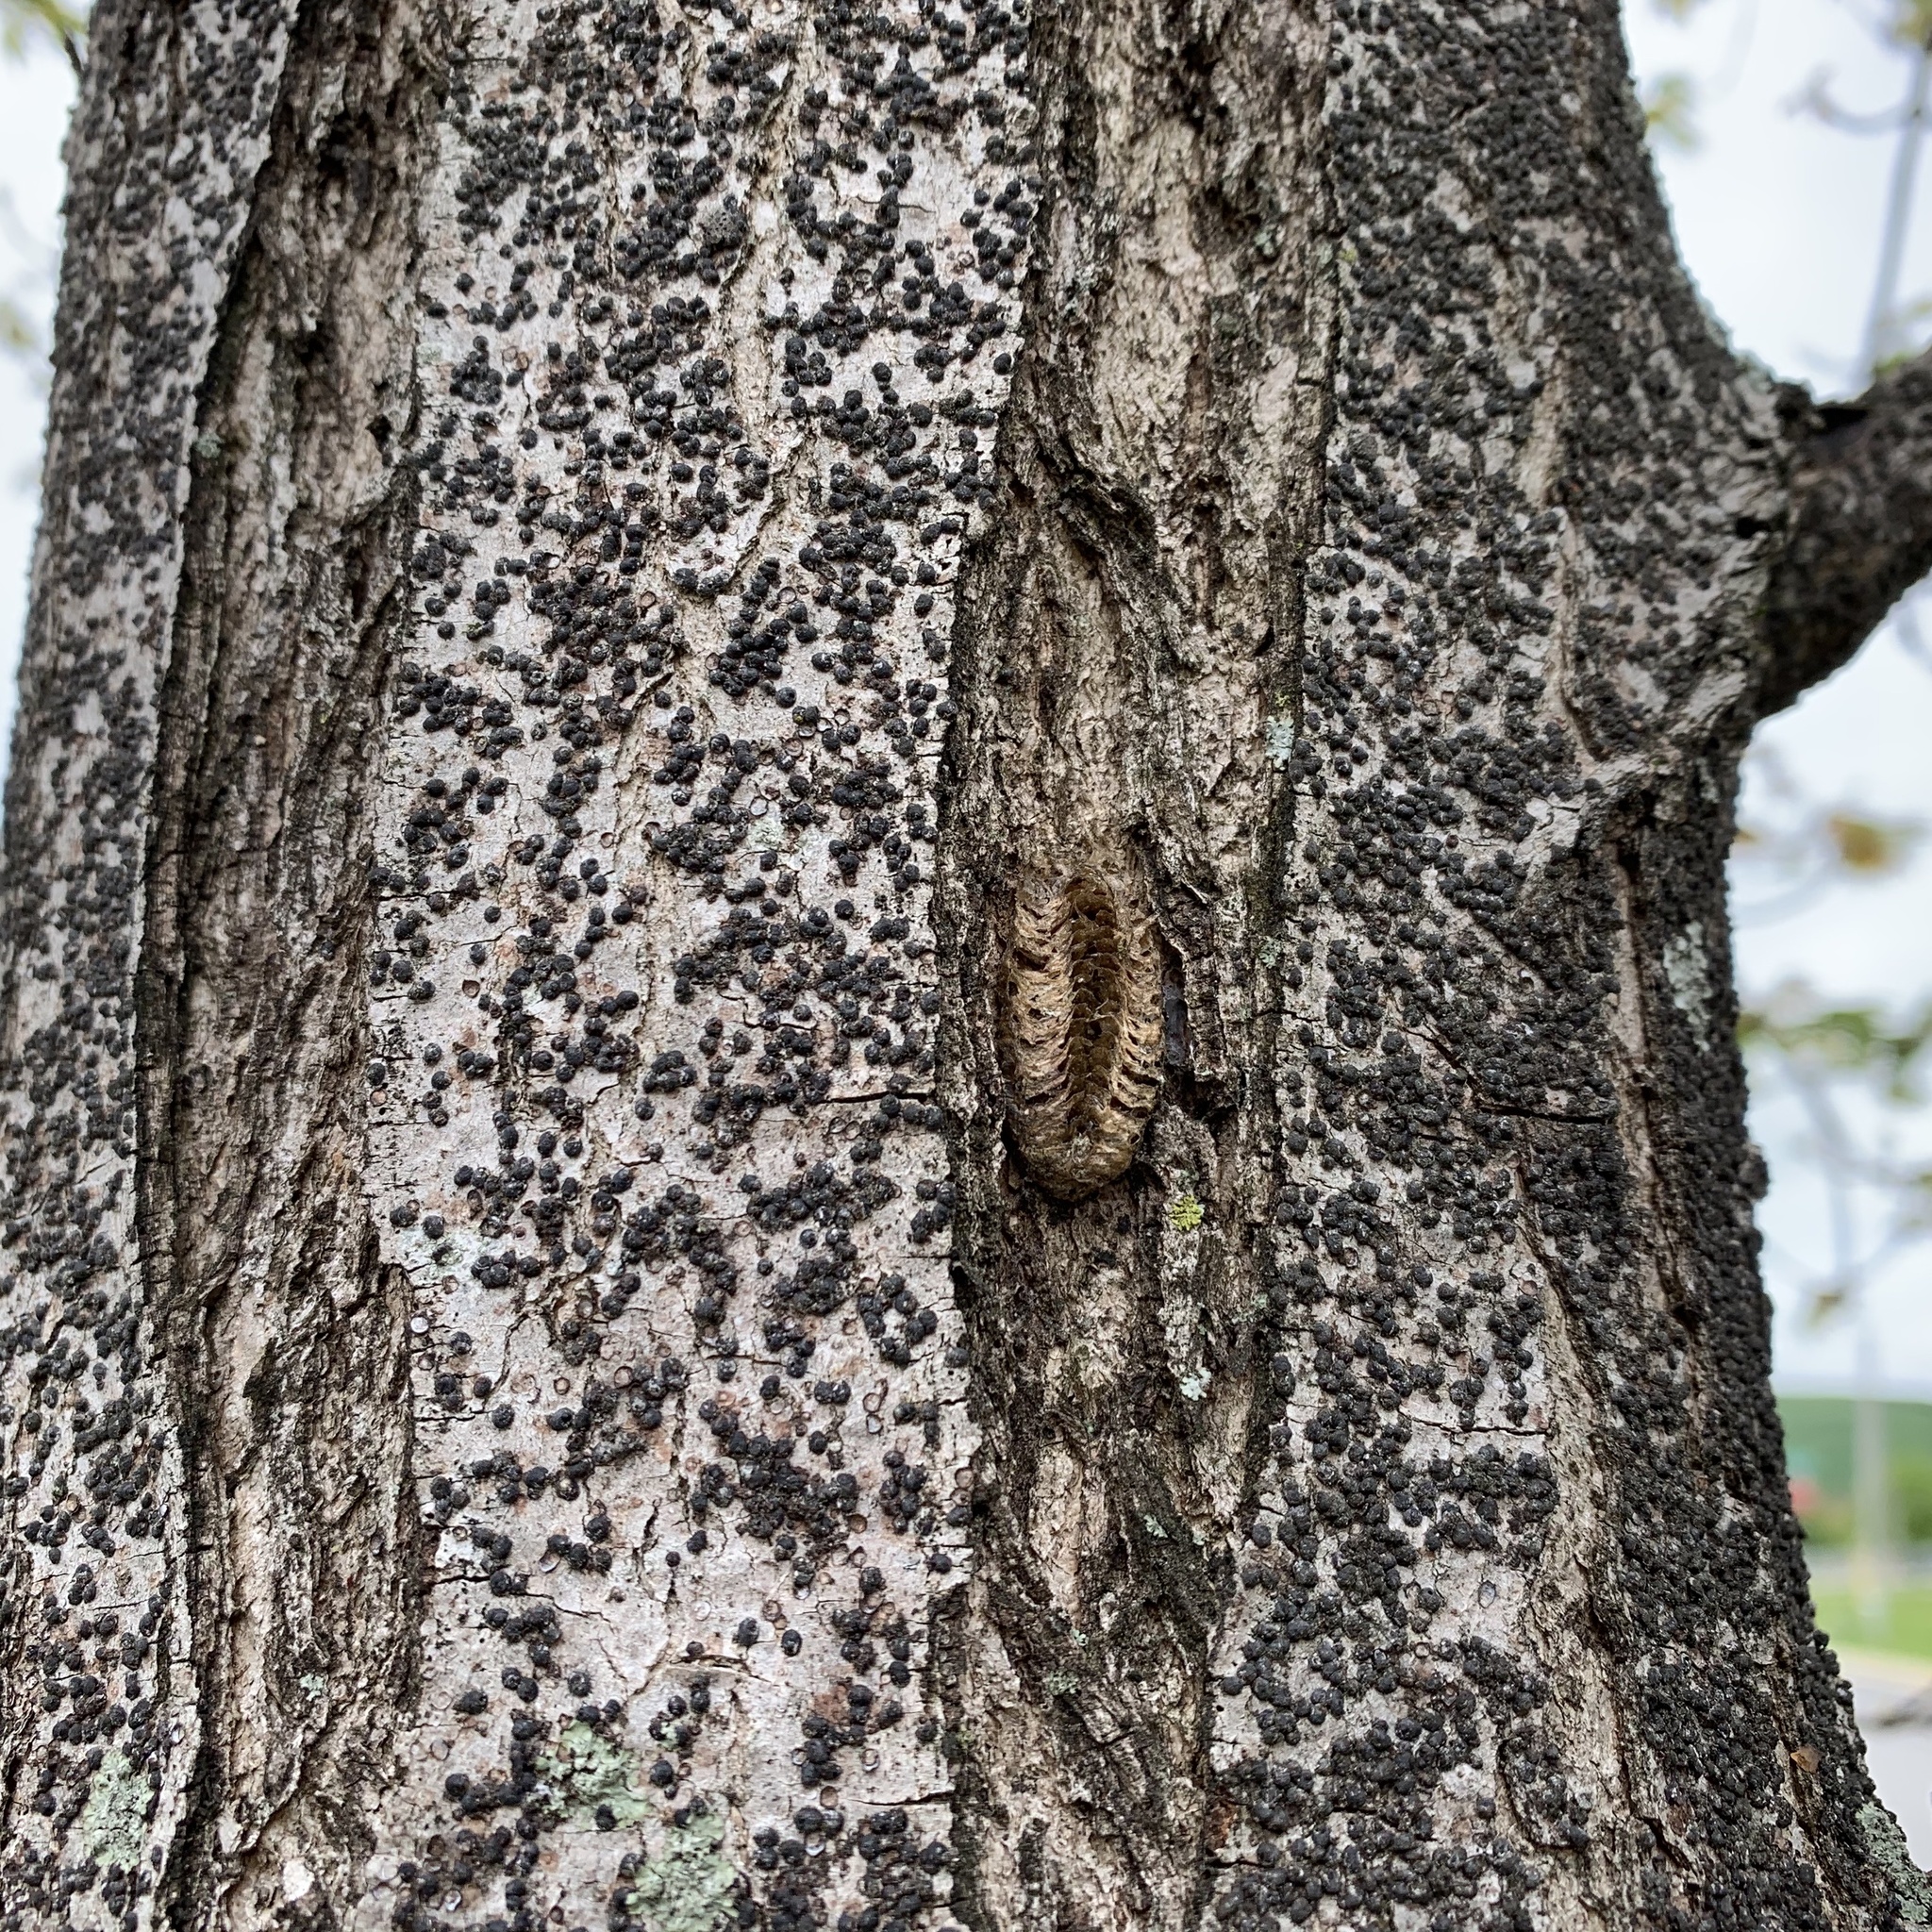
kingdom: Animalia
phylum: Arthropoda
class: Insecta
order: Mantodea
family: Mantidae
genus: Stagmomantis
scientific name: Stagmomantis carolina
